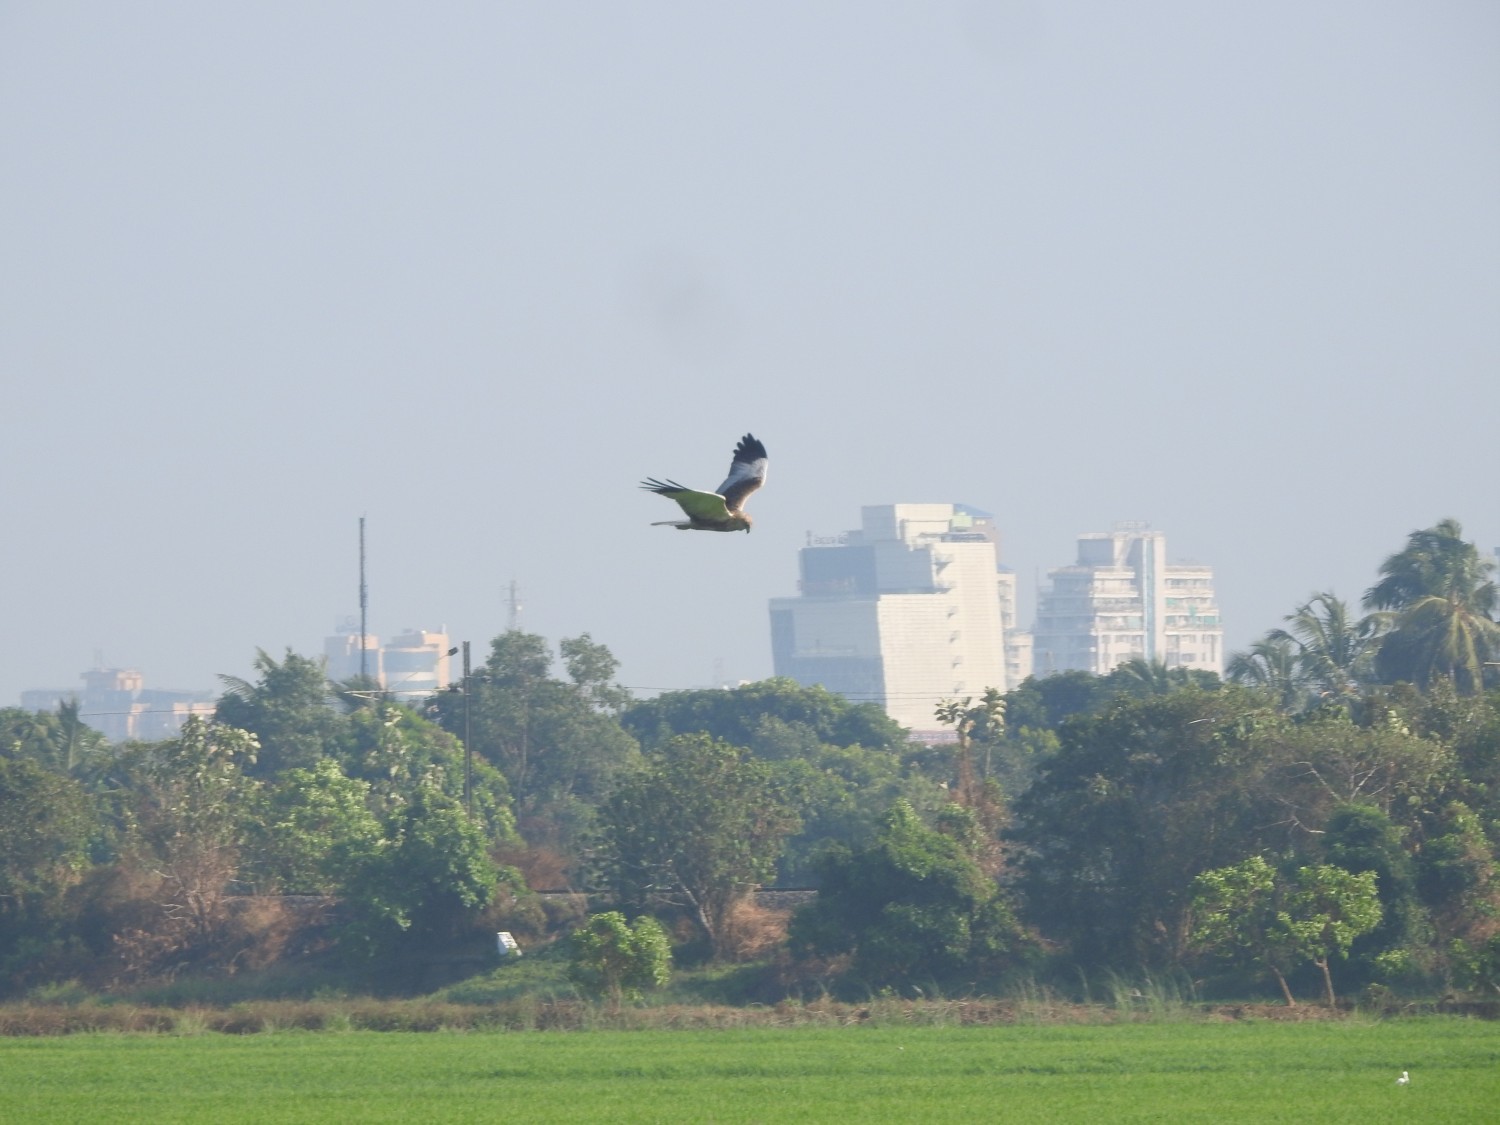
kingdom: Animalia
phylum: Chordata
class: Aves
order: Accipitriformes
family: Accipitridae
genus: Circus
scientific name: Circus aeruginosus
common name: Western marsh harrier
